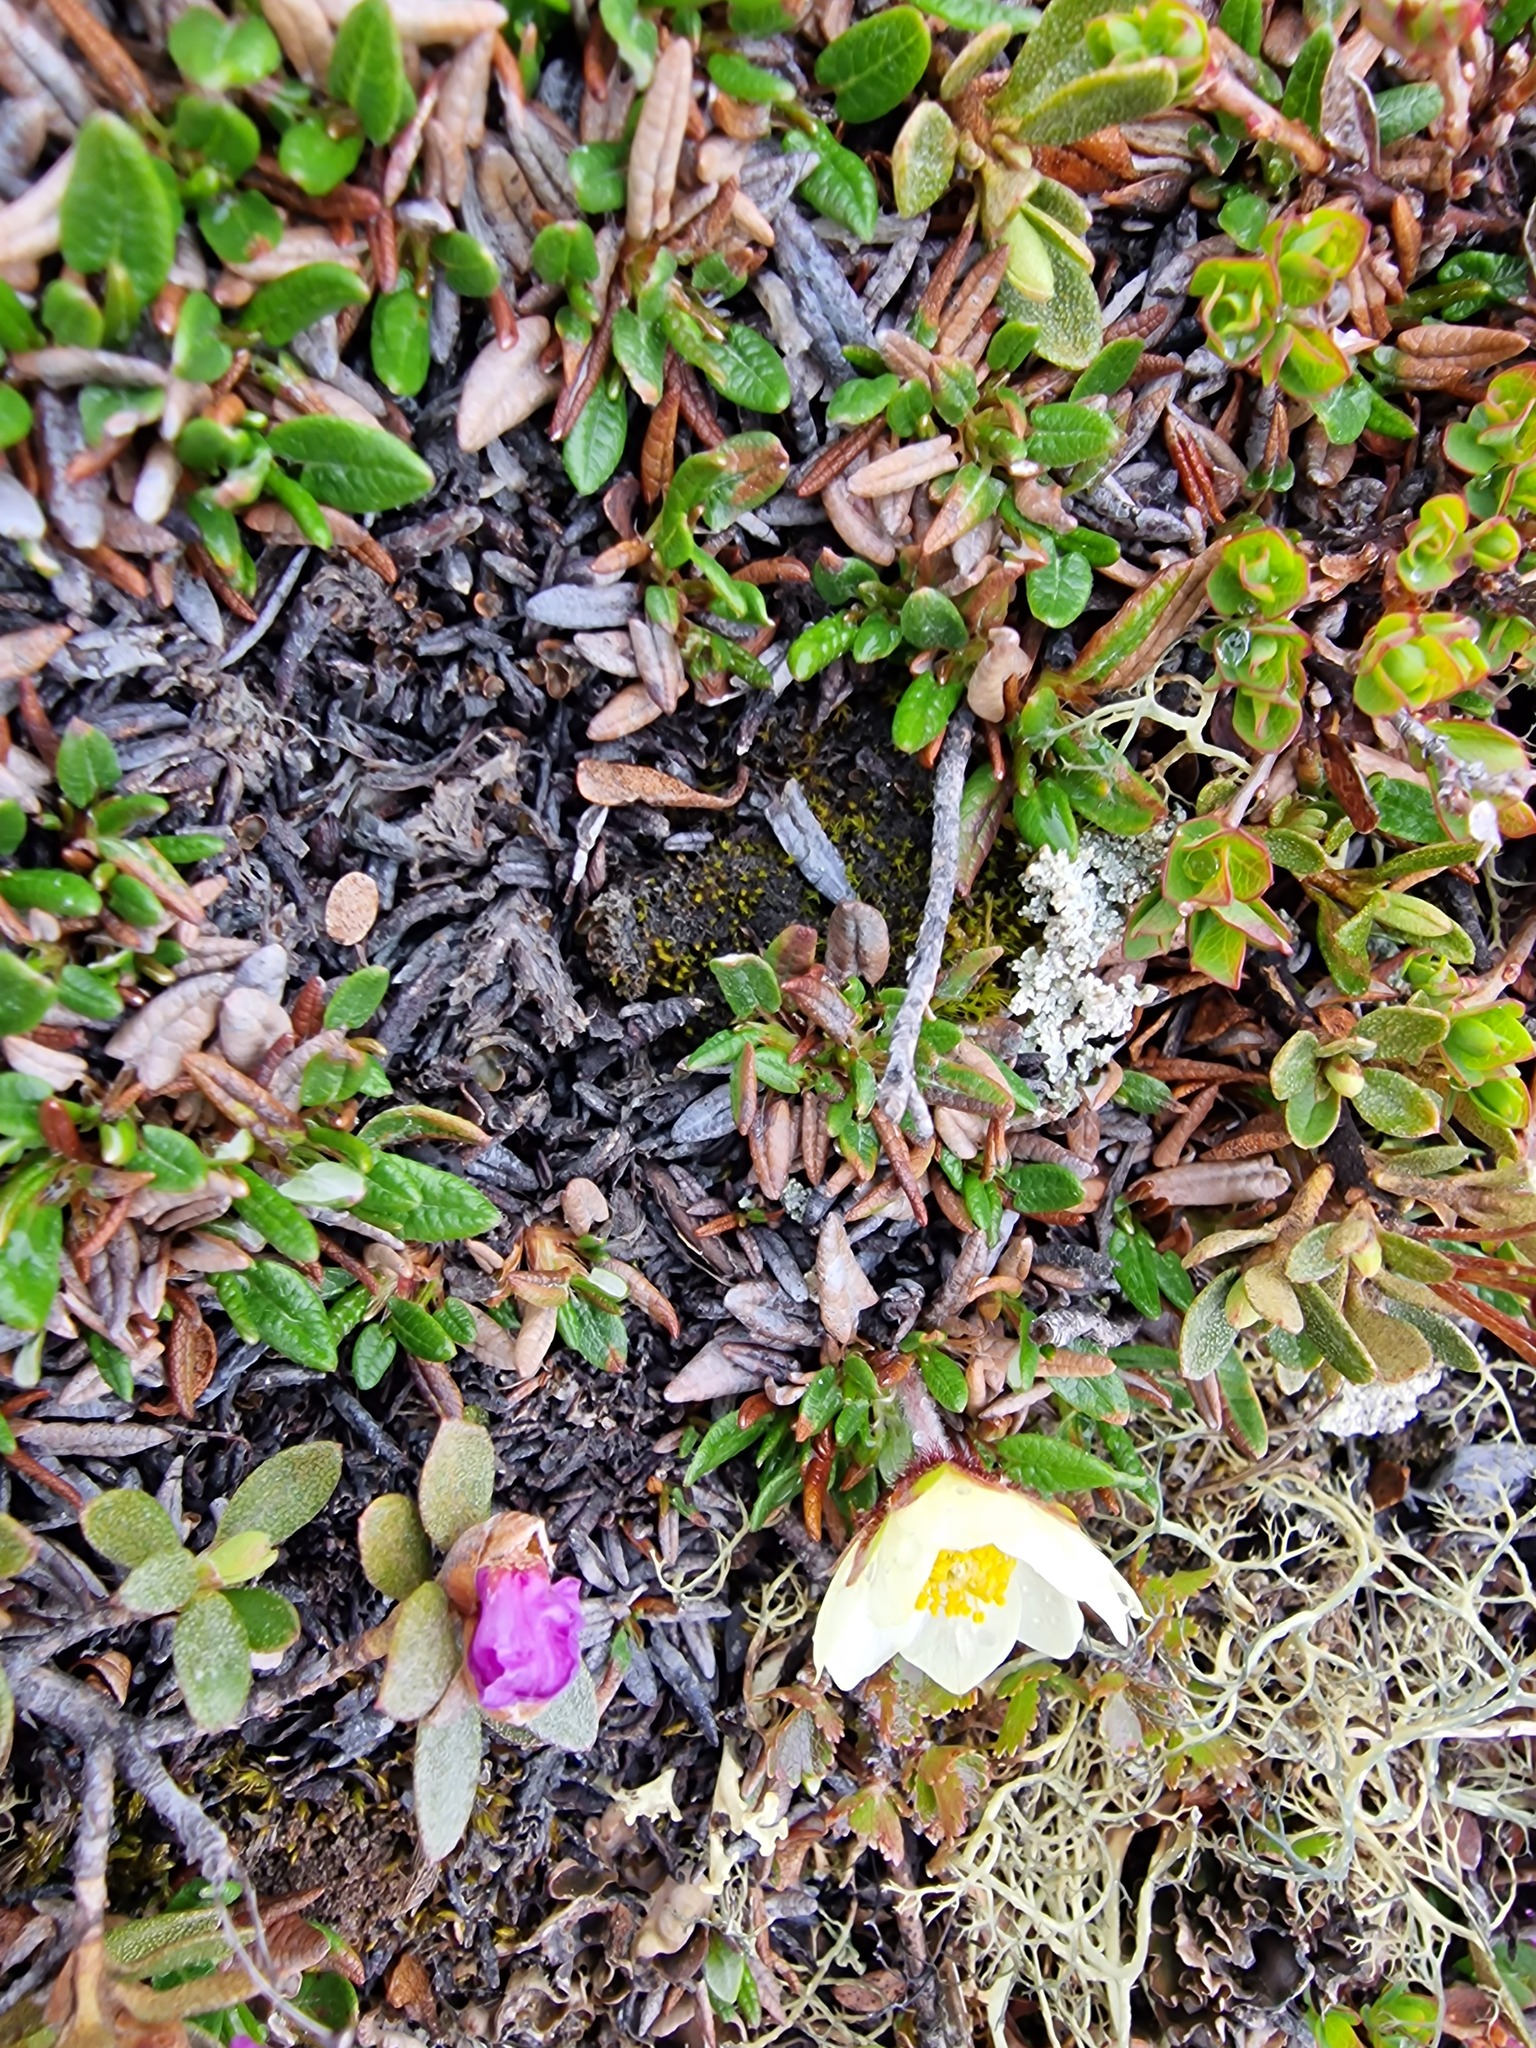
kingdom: Plantae
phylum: Tracheophyta
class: Magnoliopsida
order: Rosales
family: Rosaceae
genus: Dryas
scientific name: Dryas integrifolia
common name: Entire-leaved mountain avens
